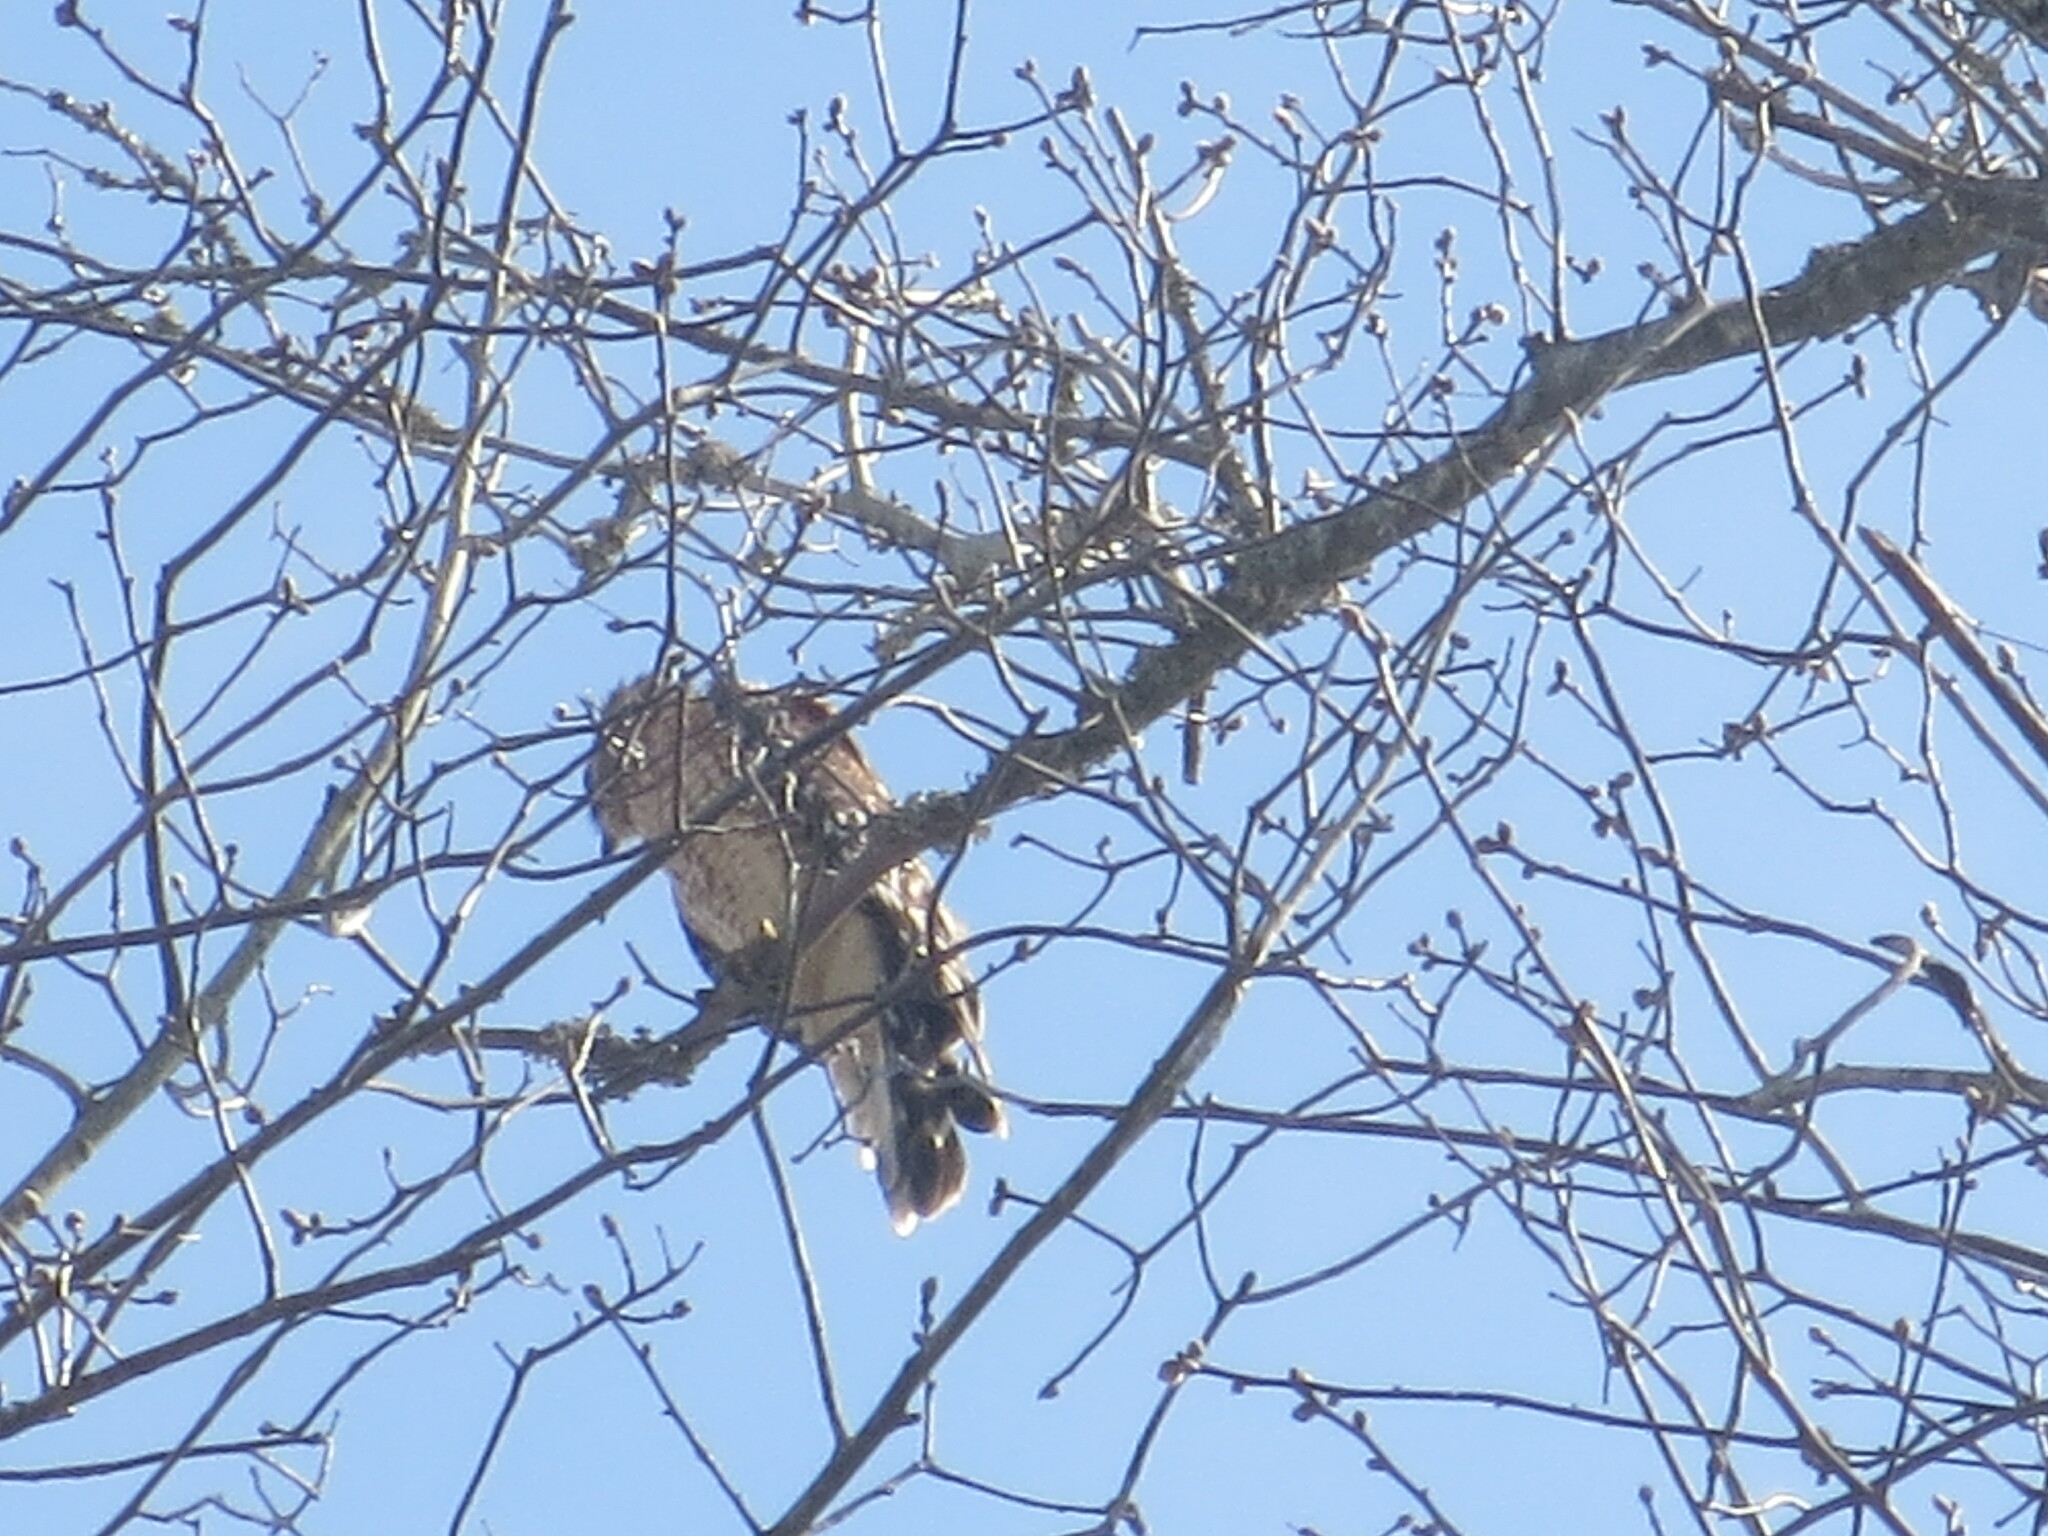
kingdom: Animalia
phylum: Chordata
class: Aves
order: Accipitriformes
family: Accipitridae
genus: Buteo
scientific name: Buteo lineatus
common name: Red-shouldered hawk
